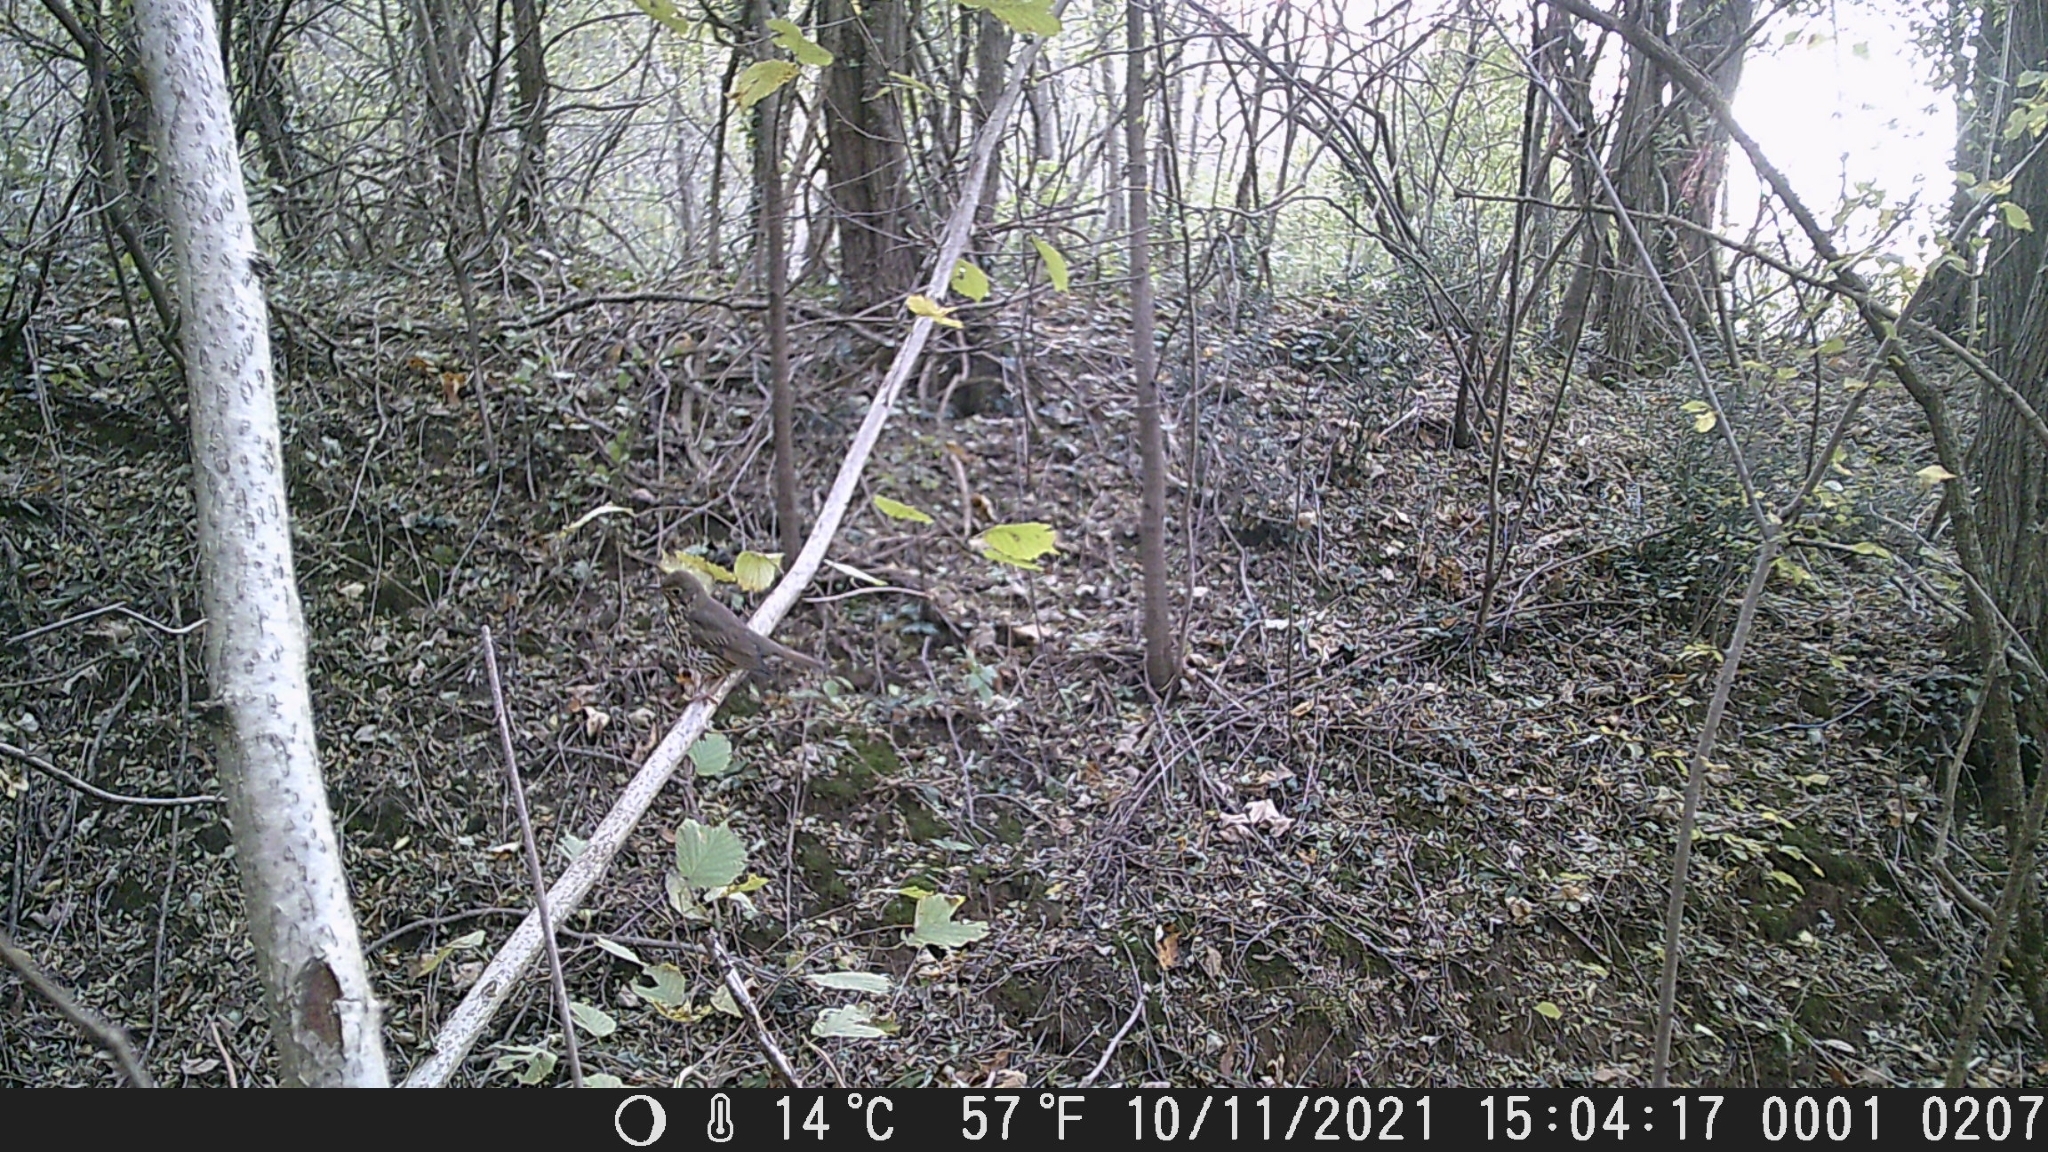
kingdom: Animalia
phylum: Chordata
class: Aves
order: Passeriformes
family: Turdidae
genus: Turdus
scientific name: Turdus philomelos
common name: Song thrush
